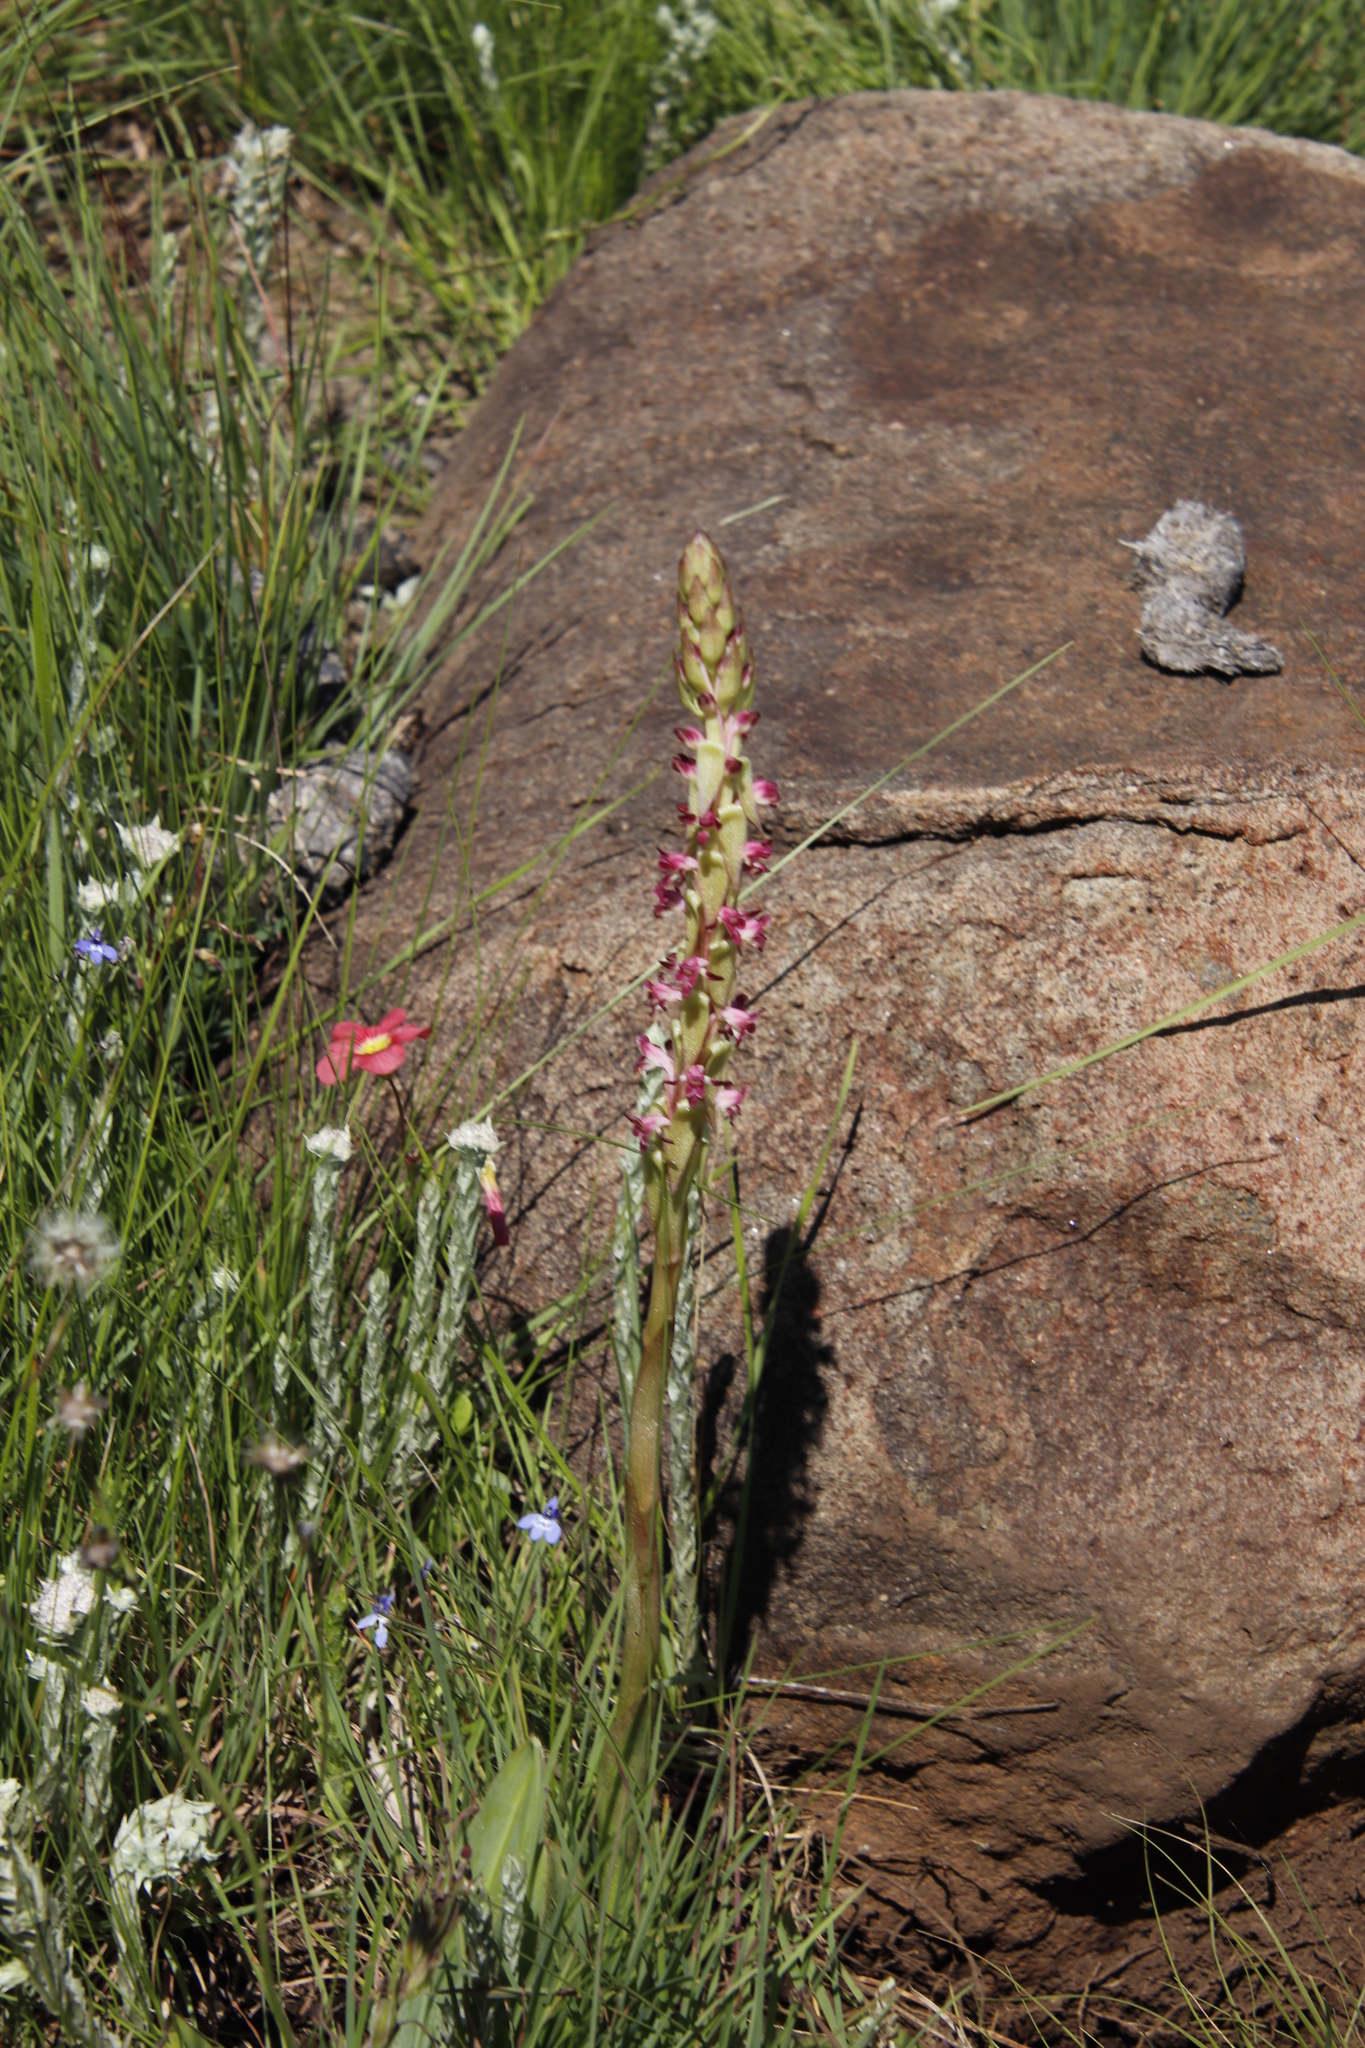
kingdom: Plantae
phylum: Tracheophyta
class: Liliopsida
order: Asparagales
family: Orchidaceae
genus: Satyrium
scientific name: Satyrium longicauda
